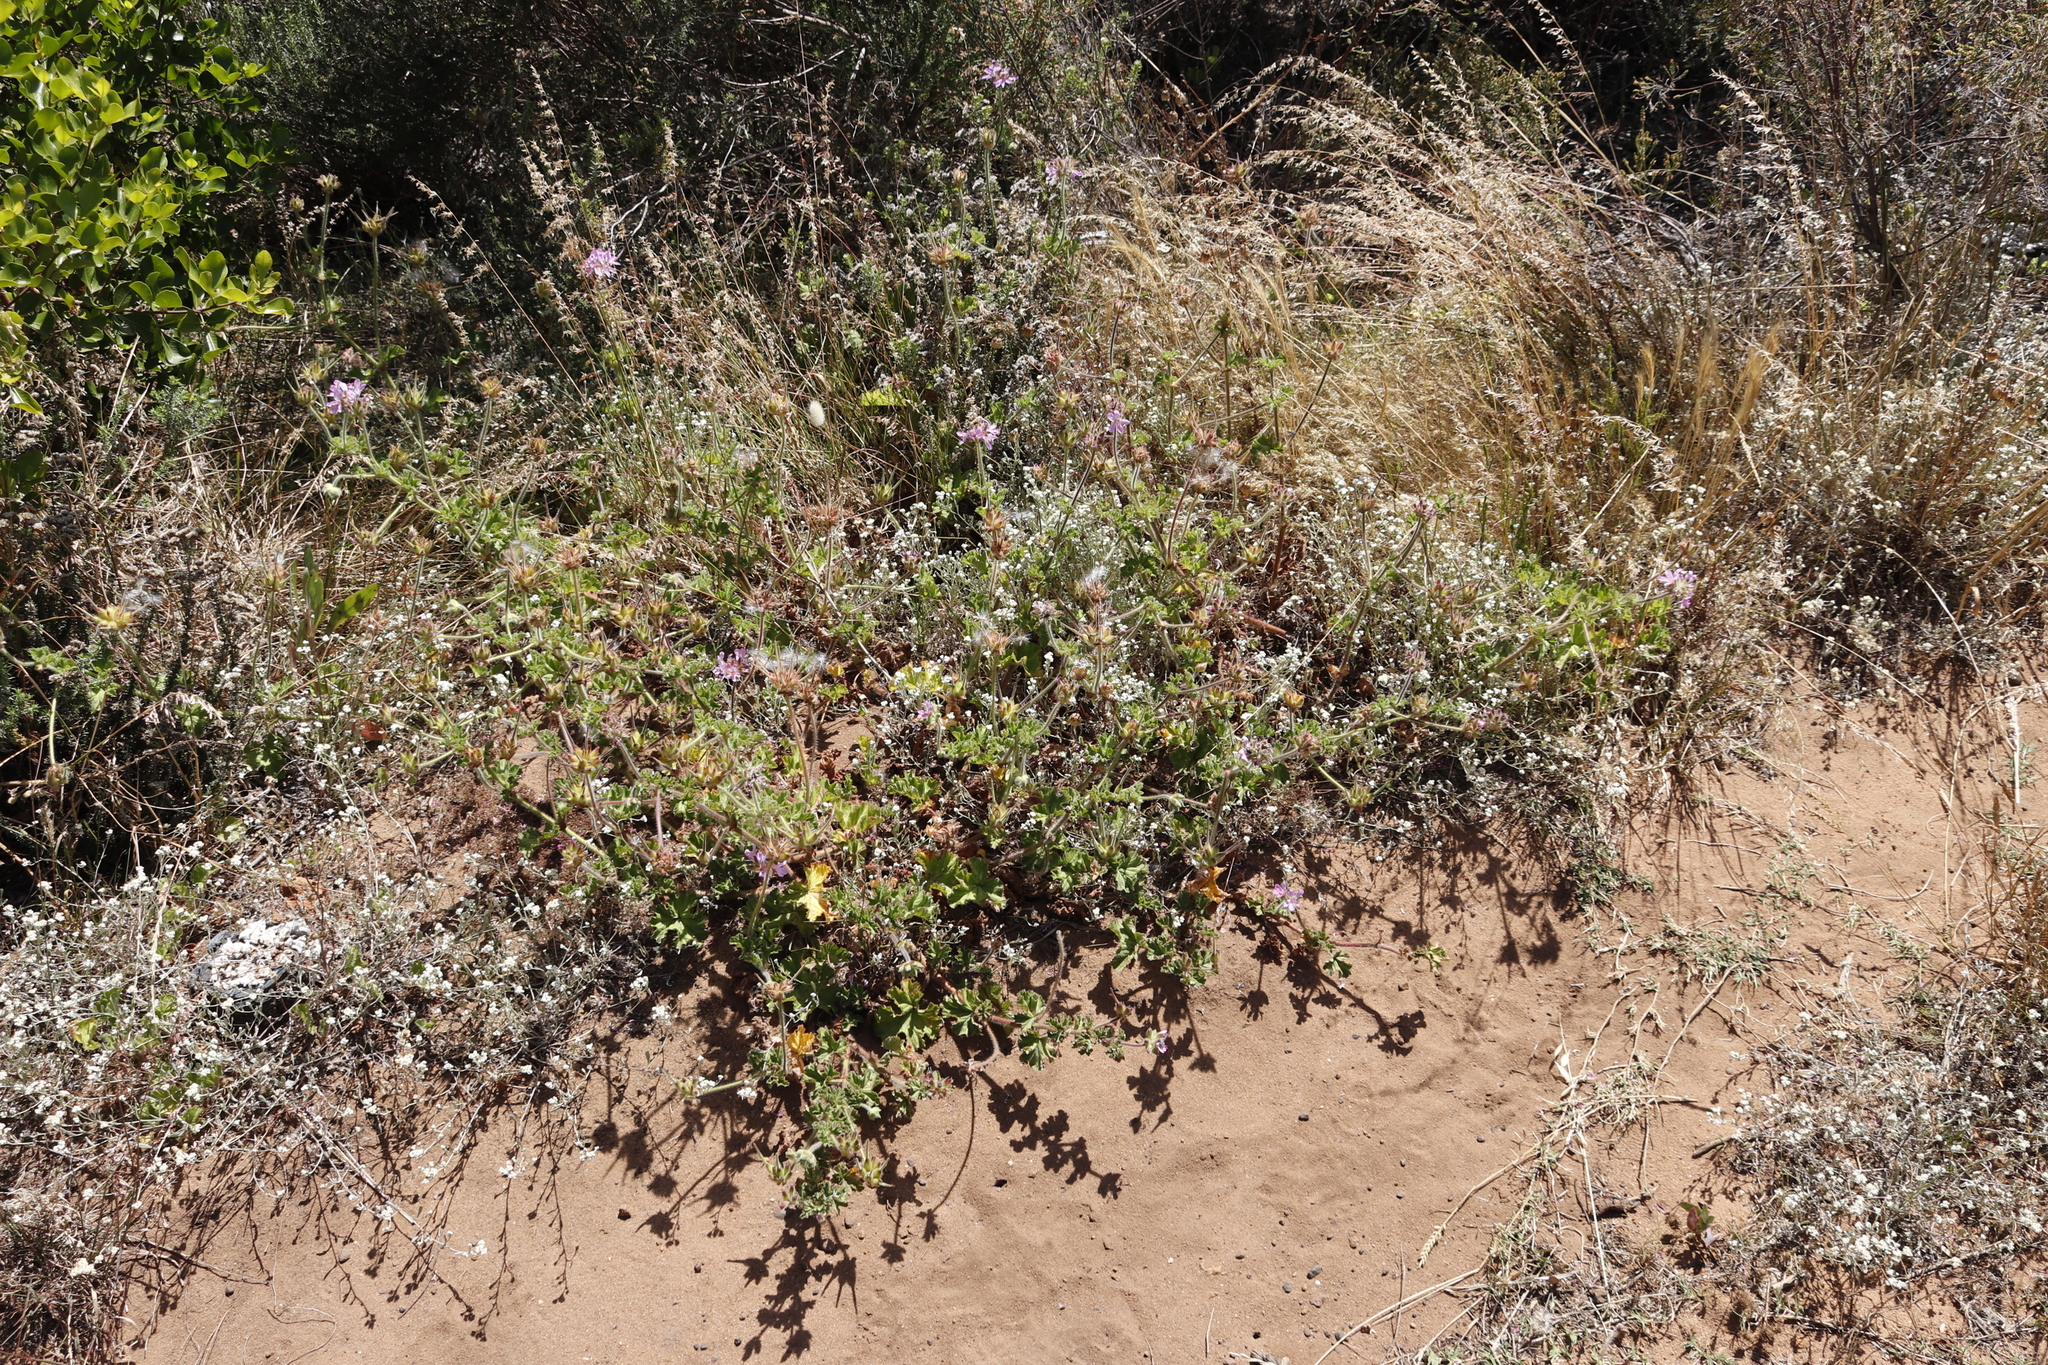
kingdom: Plantae
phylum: Tracheophyta
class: Magnoliopsida
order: Geraniales
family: Geraniaceae
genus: Pelargonium
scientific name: Pelargonium capitatum
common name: Rose scented geranium
